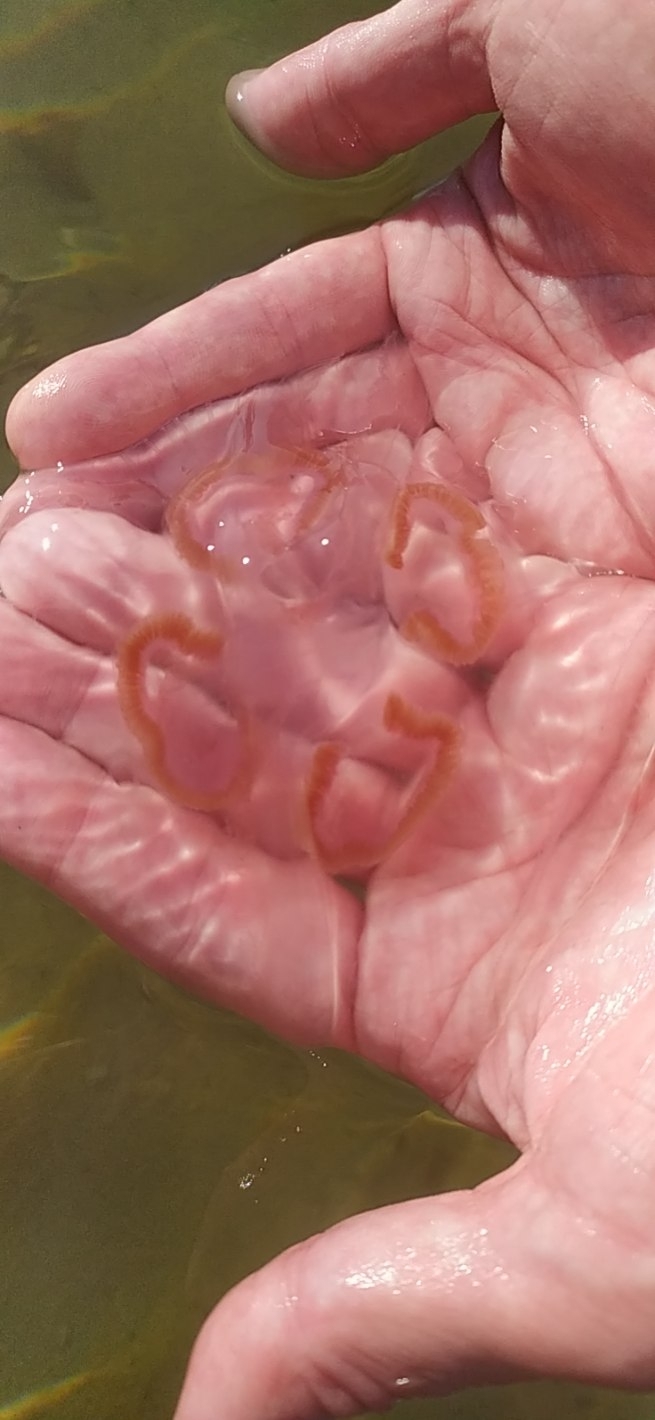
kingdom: Animalia
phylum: Cnidaria
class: Scyphozoa
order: Semaeostomeae
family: Ulmaridae
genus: Aurelia
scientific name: Aurelia aurita
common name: Moon jellyfish
